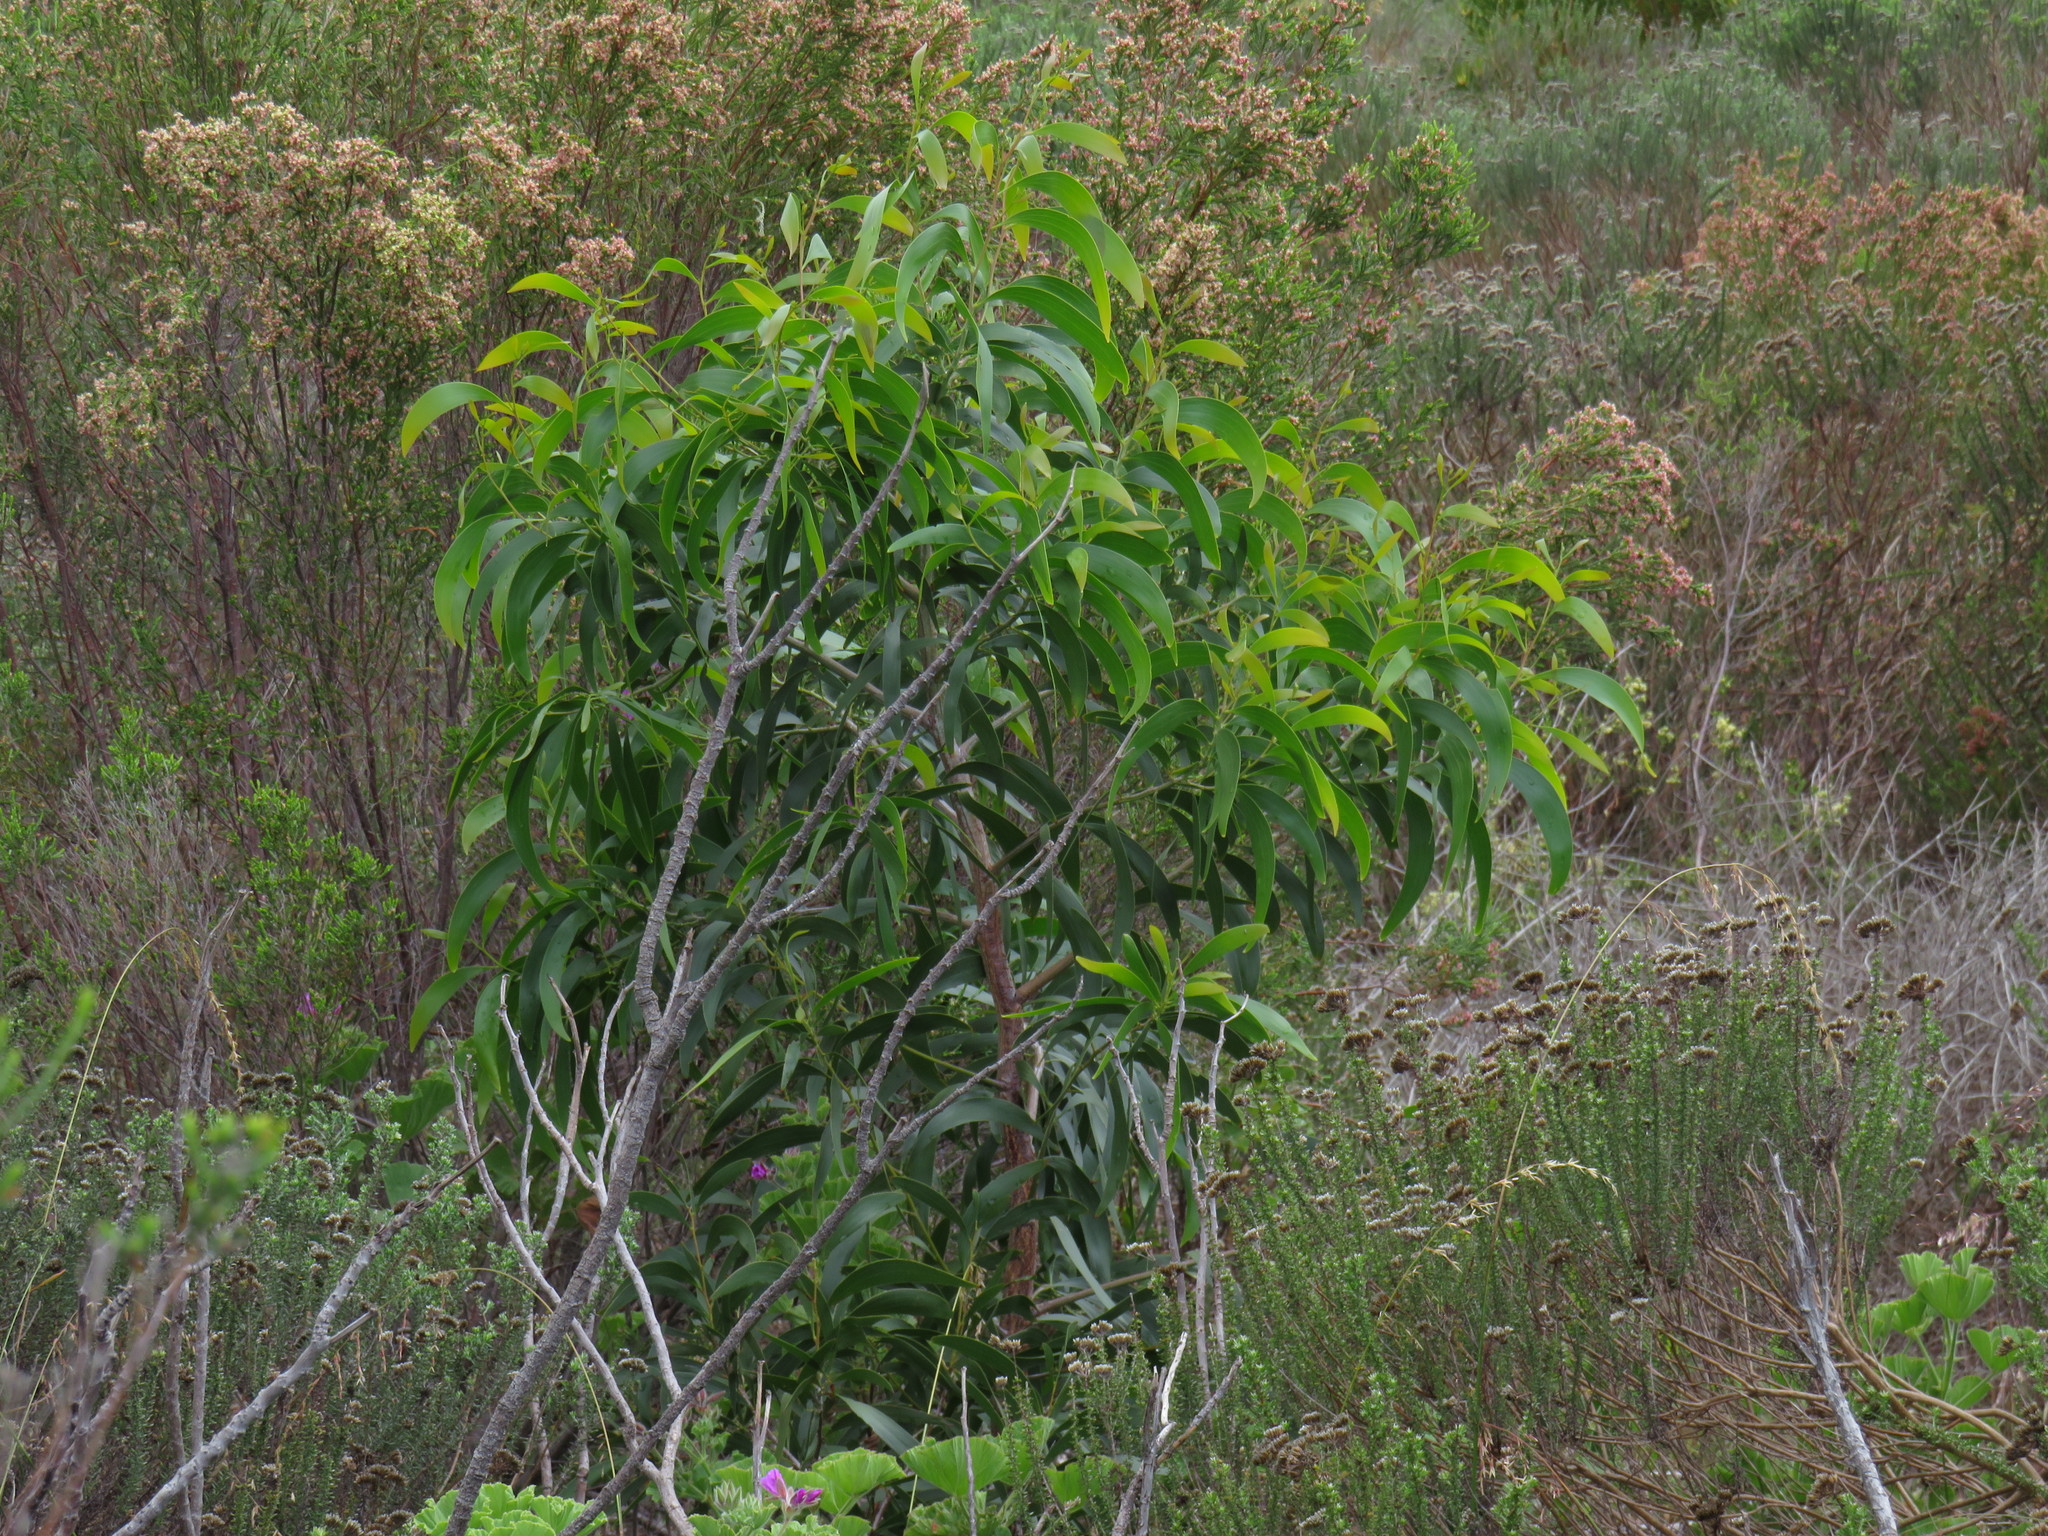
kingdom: Plantae
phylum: Tracheophyta
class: Magnoliopsida
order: Fabales
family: Fabaceae
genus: Acacia
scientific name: Acacia implexa
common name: Black wattle
